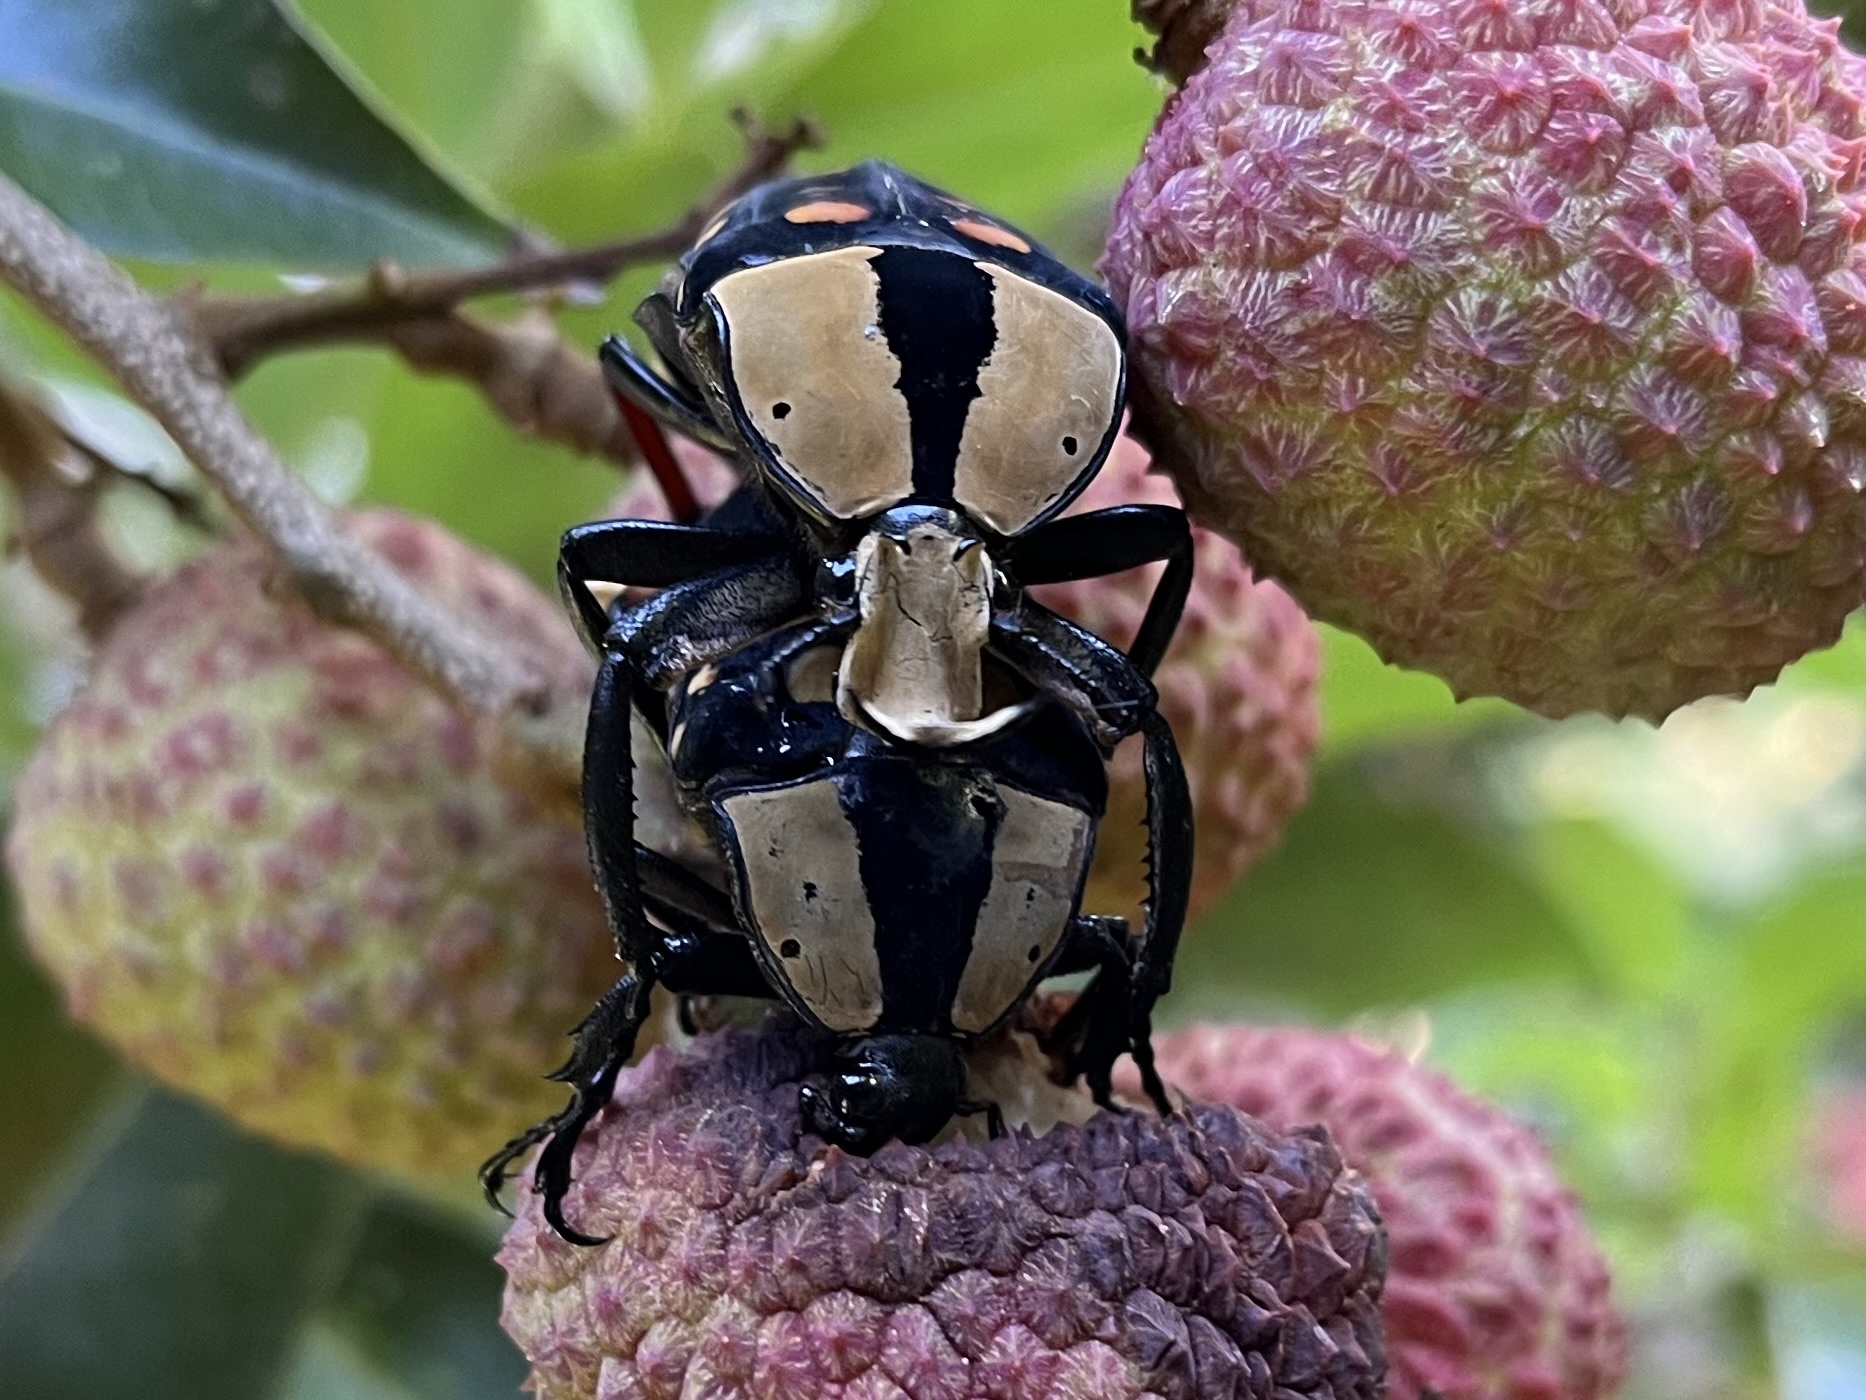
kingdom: Animalia
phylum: Arthropoda
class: Insecta
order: Coleoptera
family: Scarabaeidae
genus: Mecynorhina
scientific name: Mecynorhina passerinii
